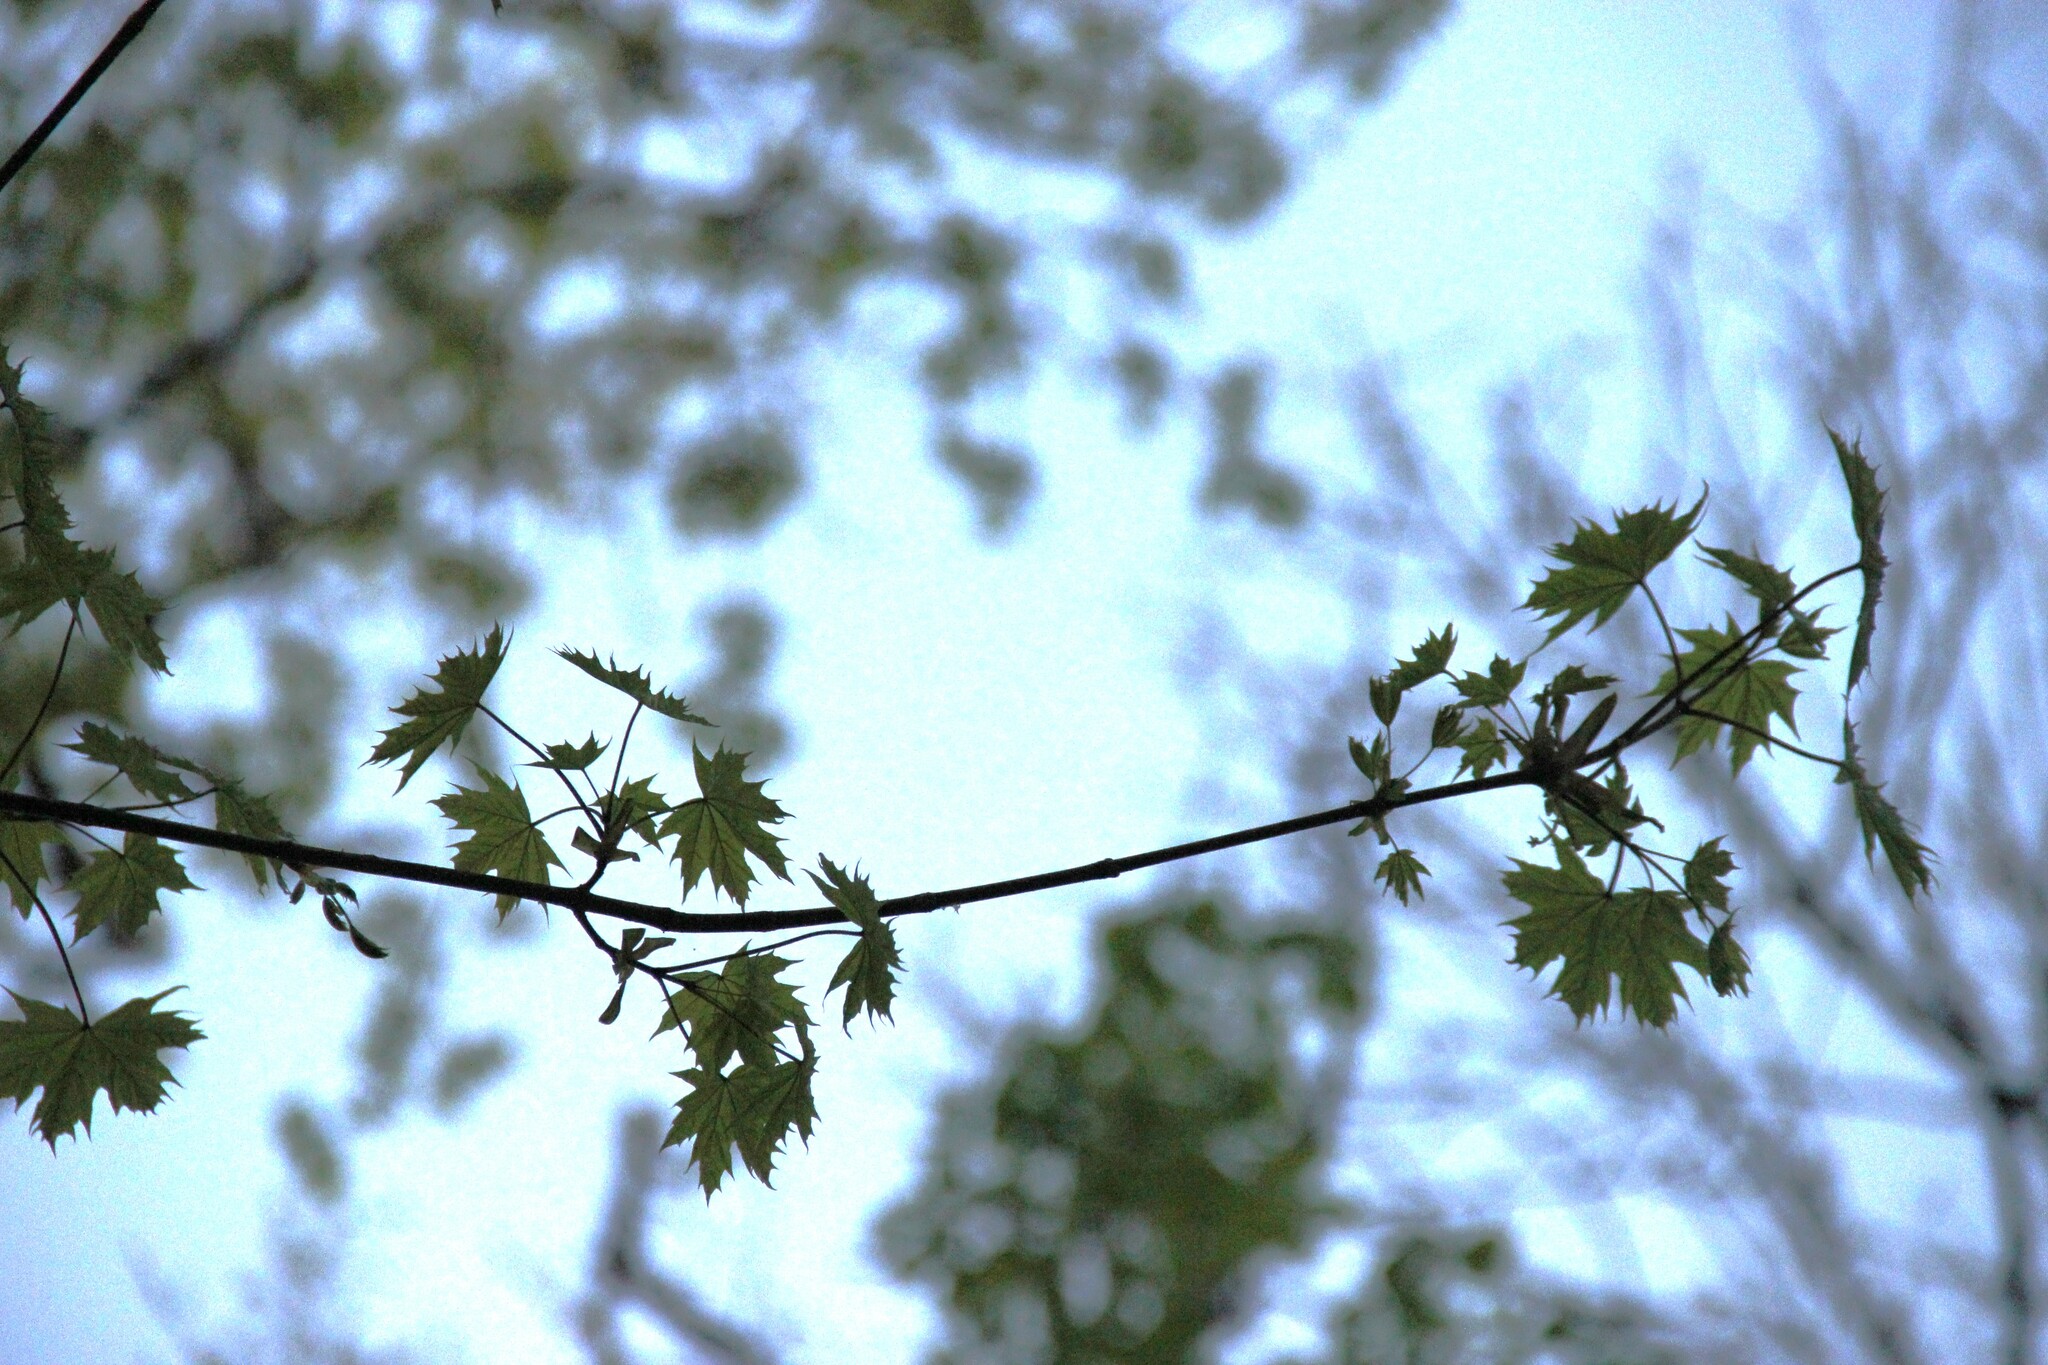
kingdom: Plantae
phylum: Tracheophyta
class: Magnoliopsida
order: Sapindales
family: Sapindaceae
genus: Acer
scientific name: Acer platanoides
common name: Norway maple
